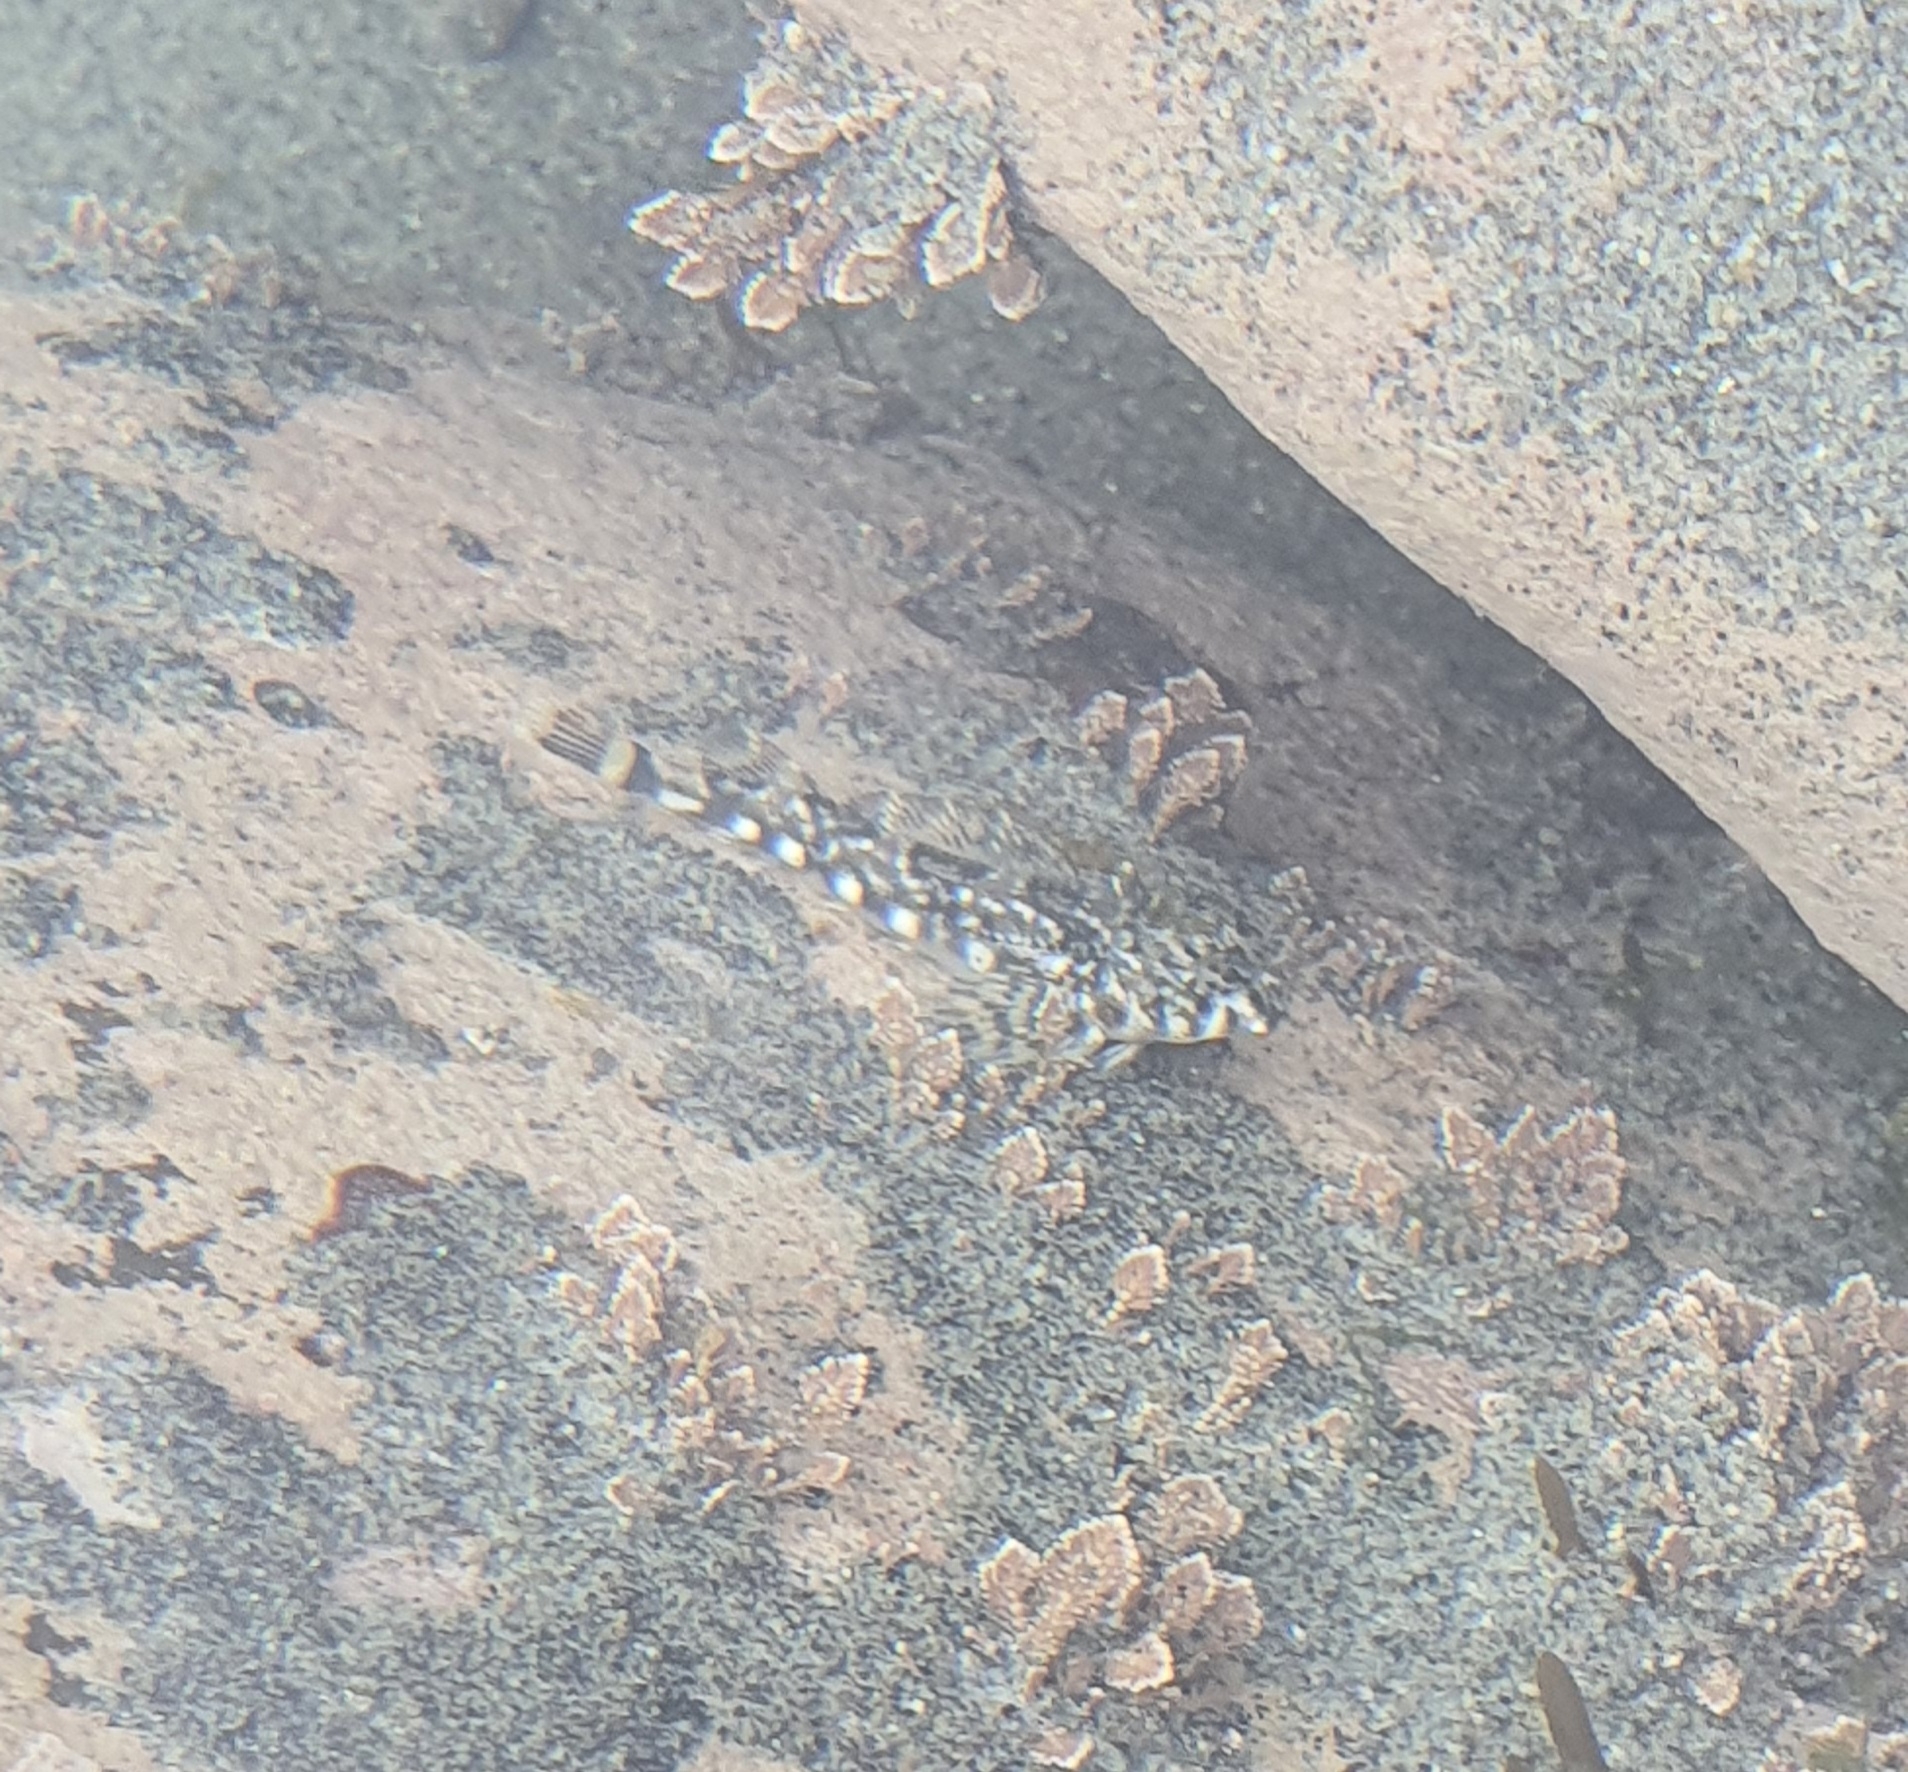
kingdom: Animalia
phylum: Chordata
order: Perciformes
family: Tripterygiidae
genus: Blennodon
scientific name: Blennodon dorsalis
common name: Giant triplefin
